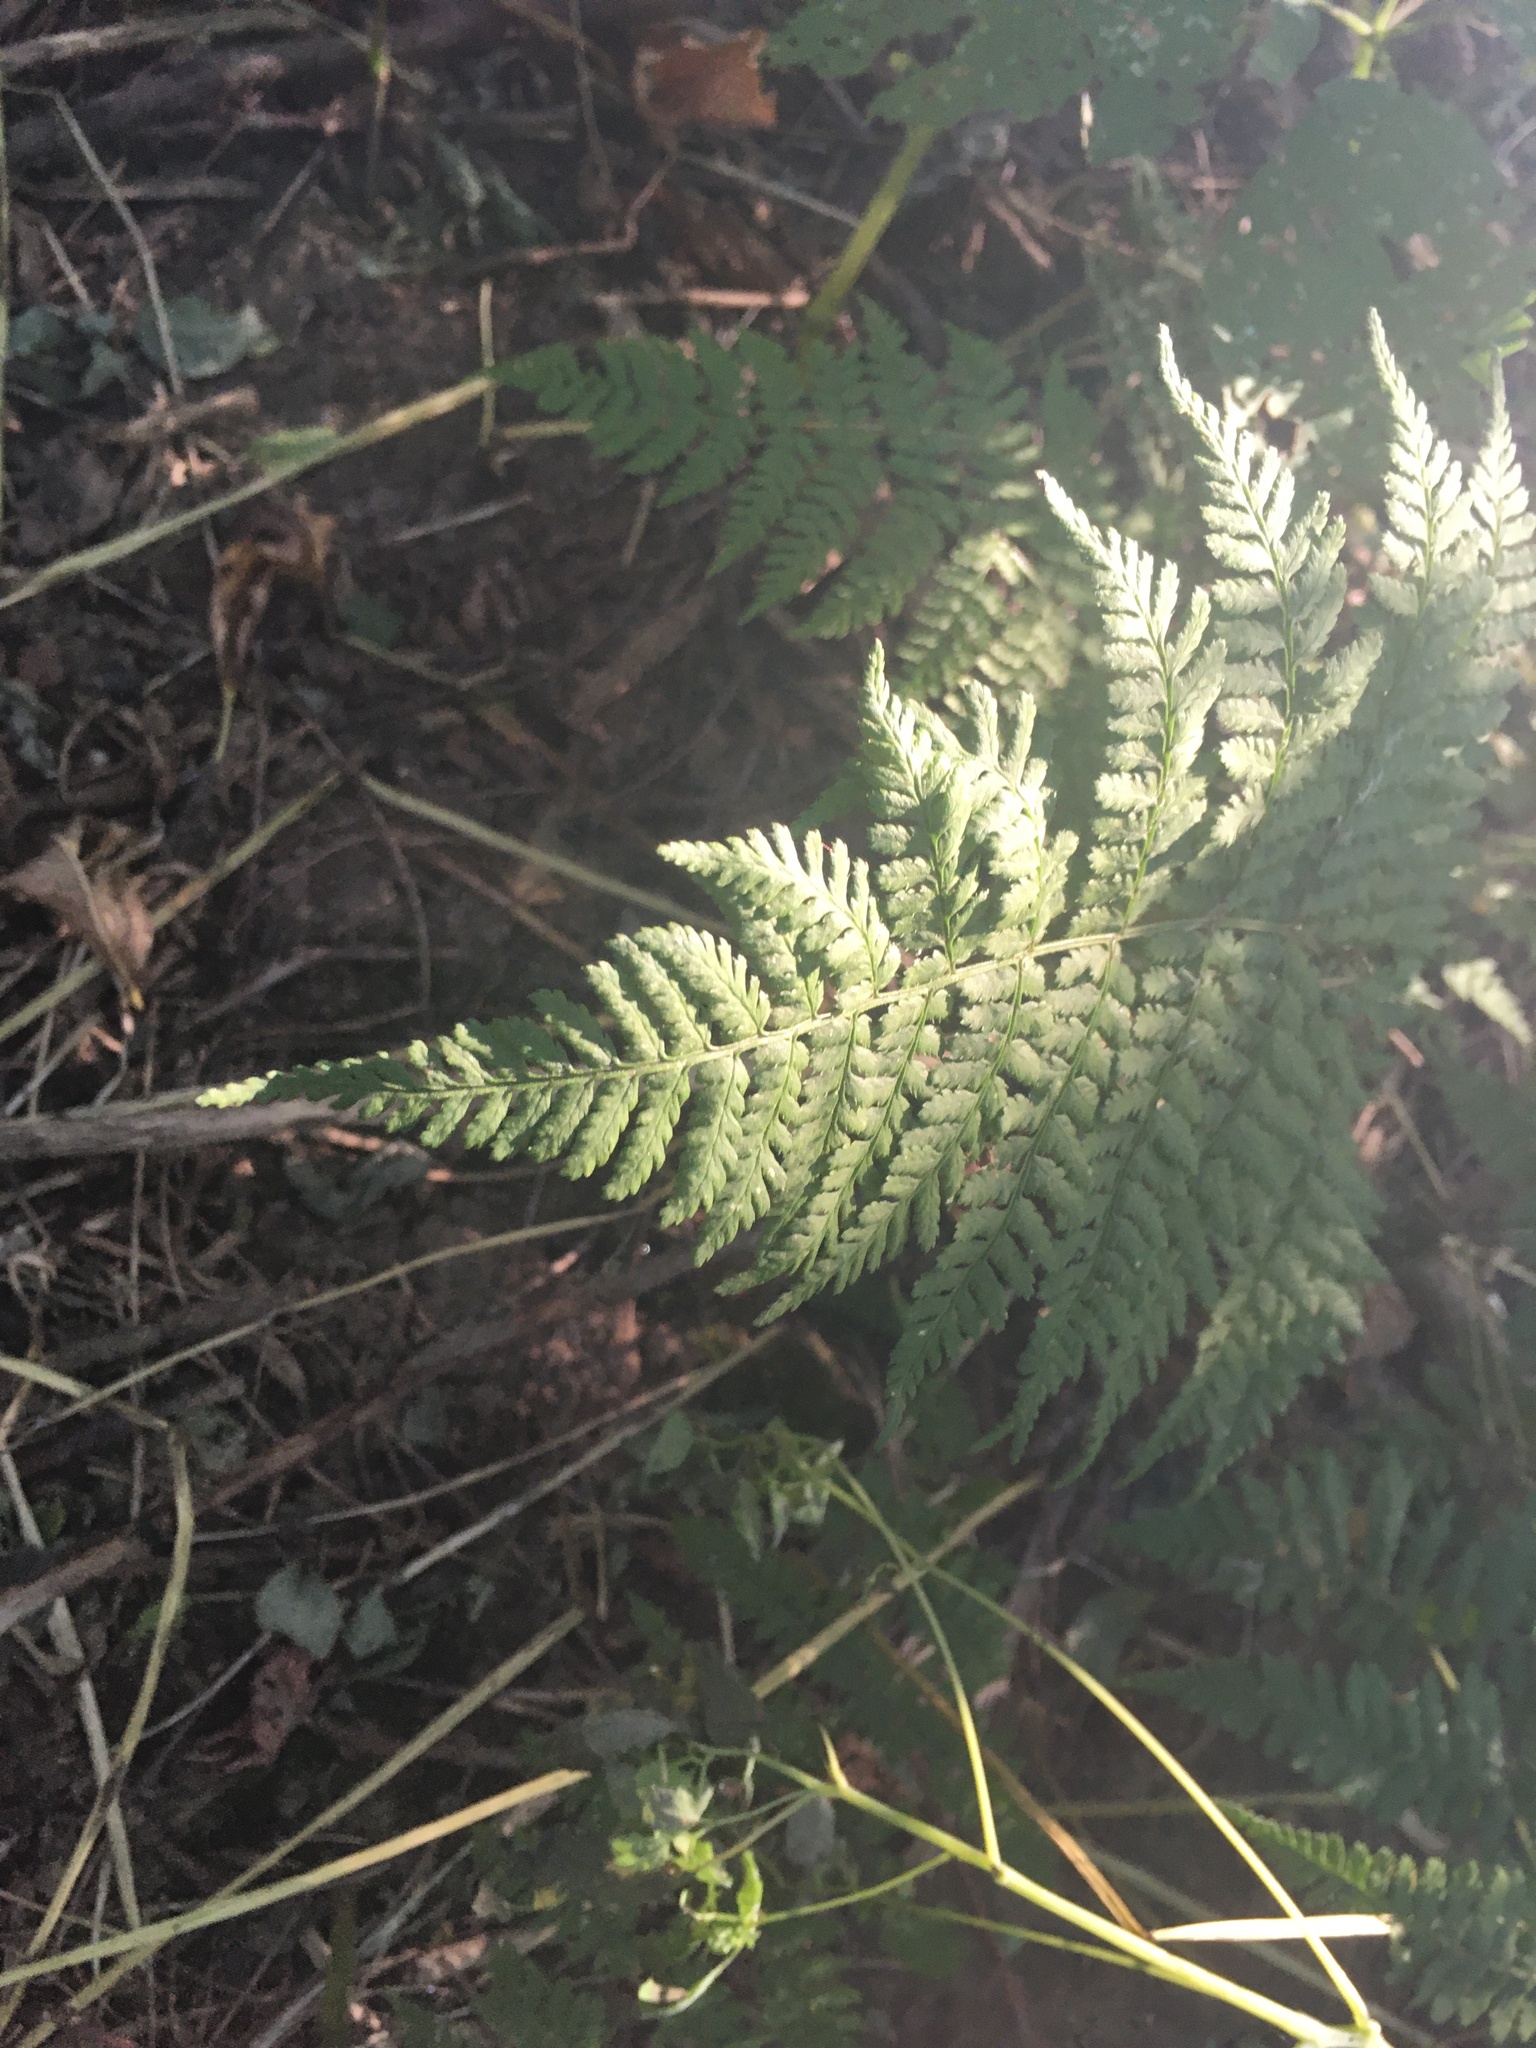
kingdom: Plantae
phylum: Tracheophyta
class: Polypodiopsida
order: Polypodiales
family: Dryopteridaceae
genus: Dryopteris
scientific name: Dryopteris intermedia
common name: Evergreen wood fern
